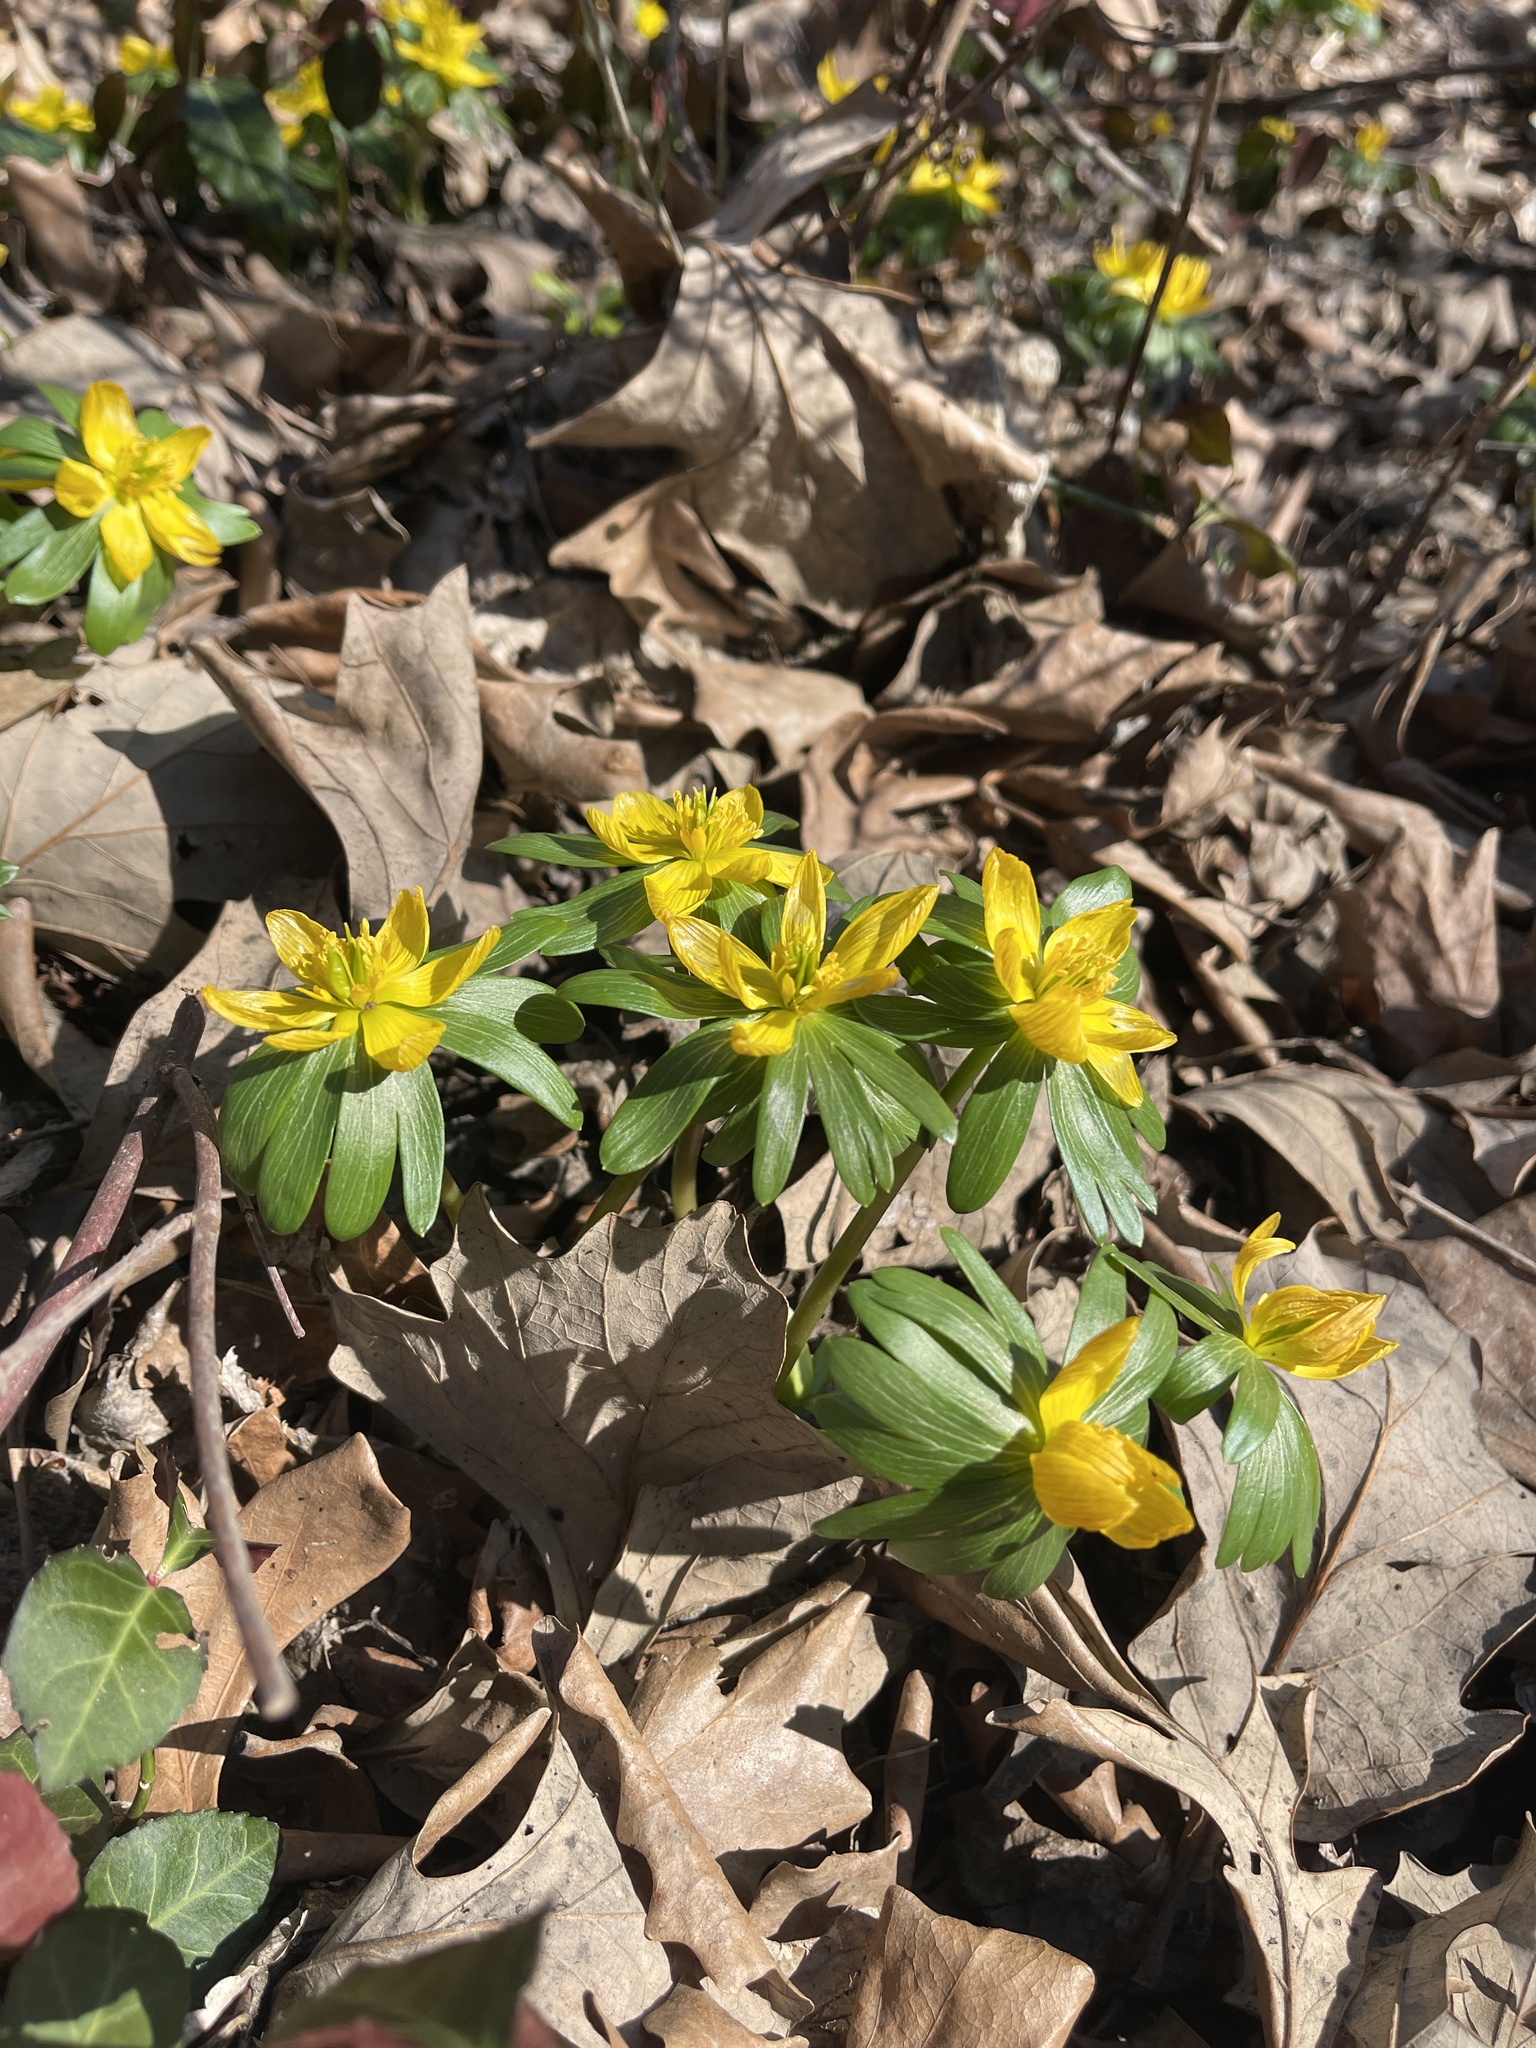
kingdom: Plantae
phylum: Tracheophyta
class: Magnoliopsida
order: Ranunculales
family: Ranunculaceae
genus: Eranthis
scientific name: Eranthis hyemalis
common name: Winter aconite
